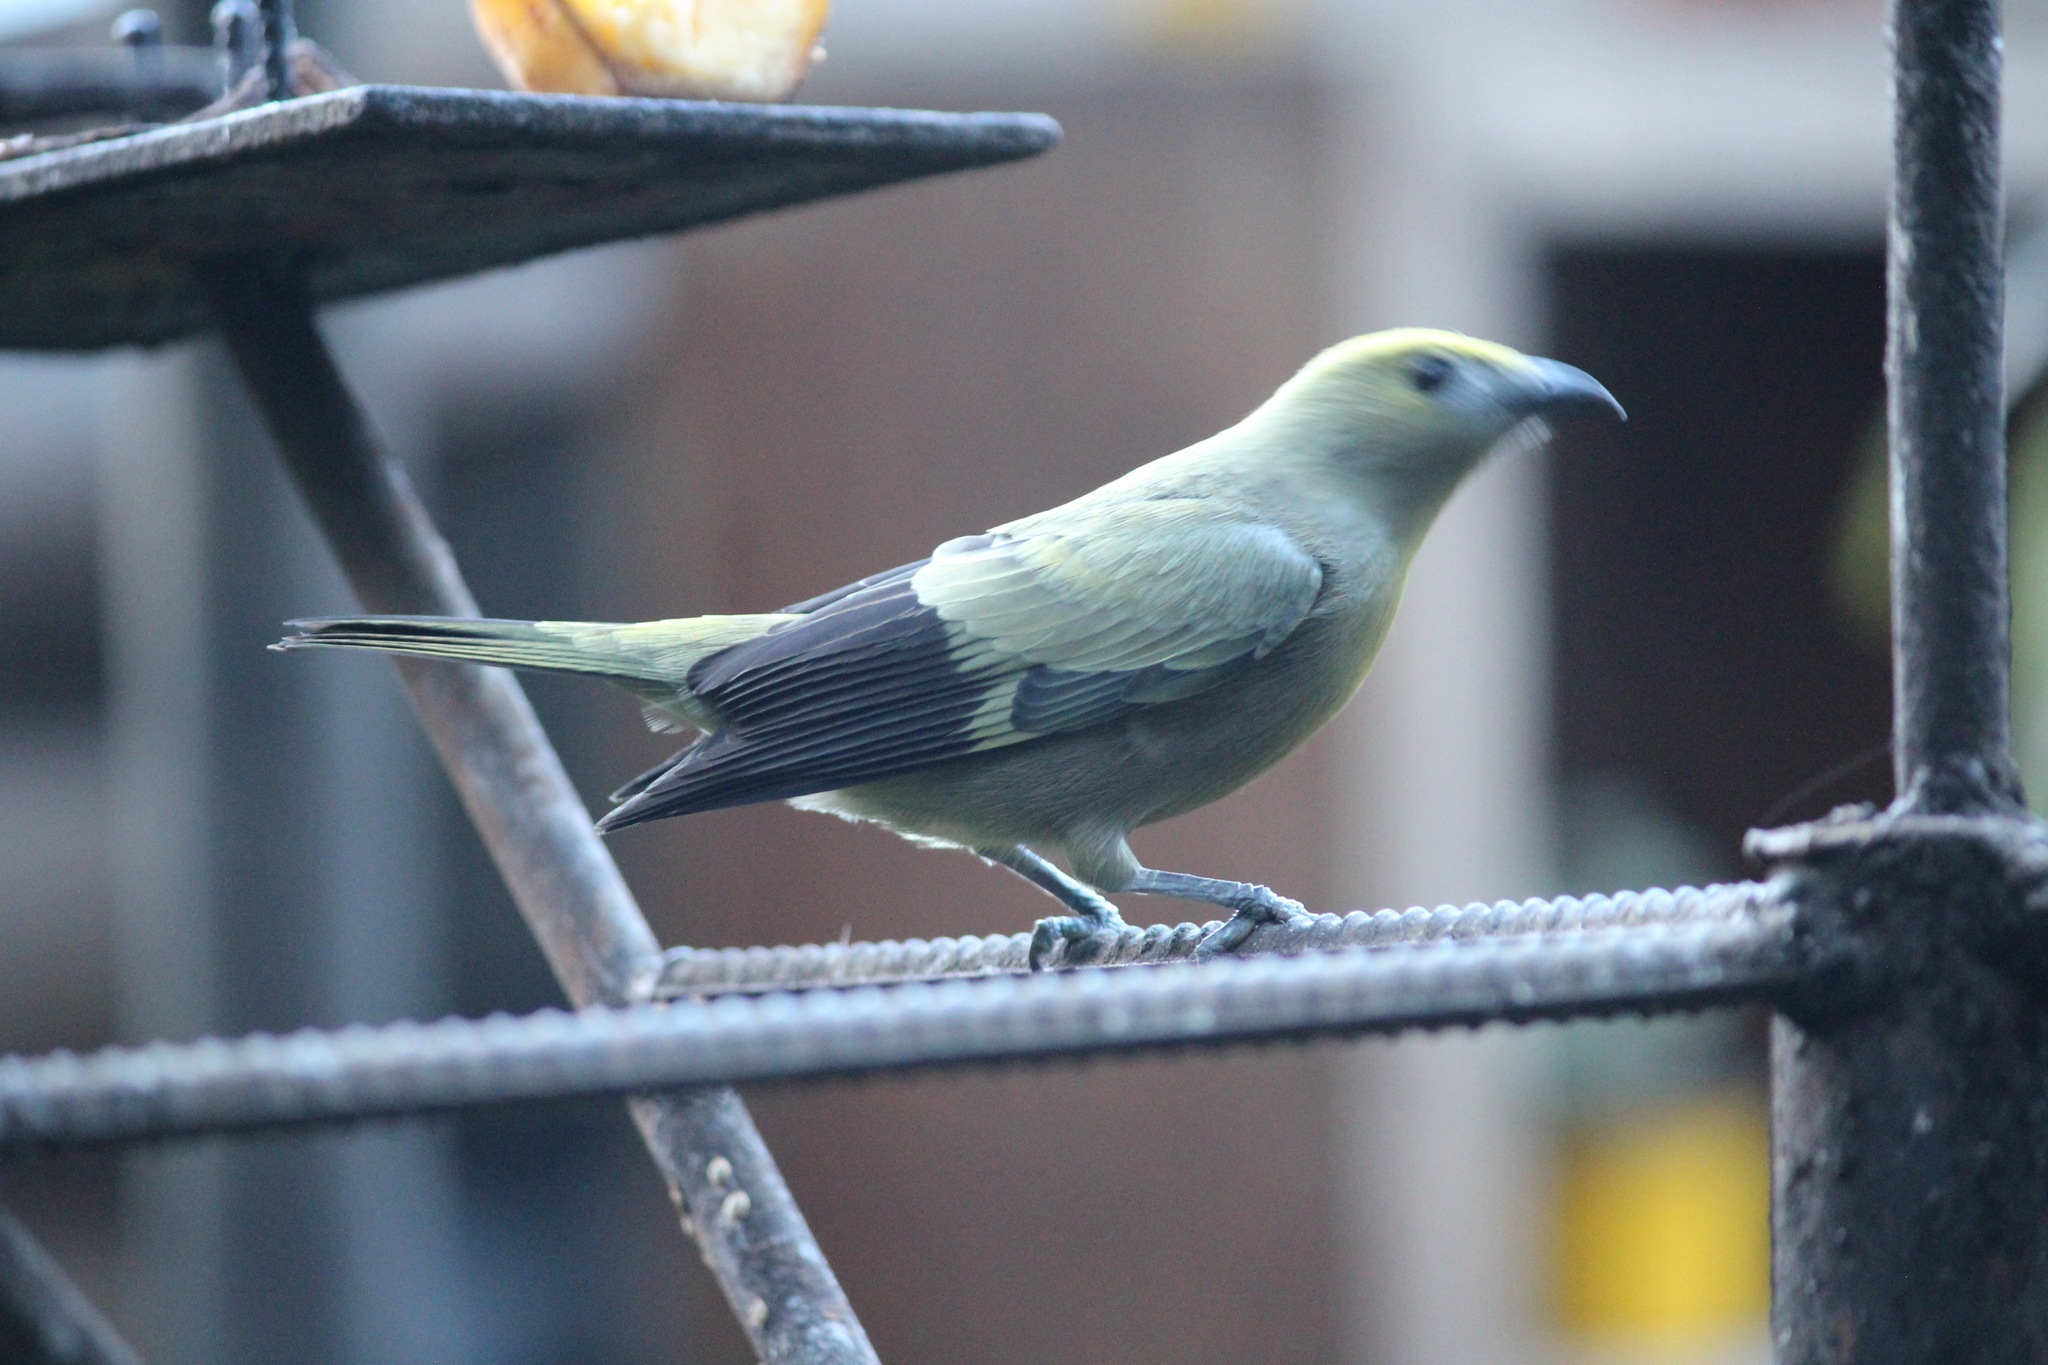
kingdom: Animalia
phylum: Chordata
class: Aves
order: Passeriformes
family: Thraupidae
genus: Thraupis
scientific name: Thraupis palmarum
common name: Palm tanager
